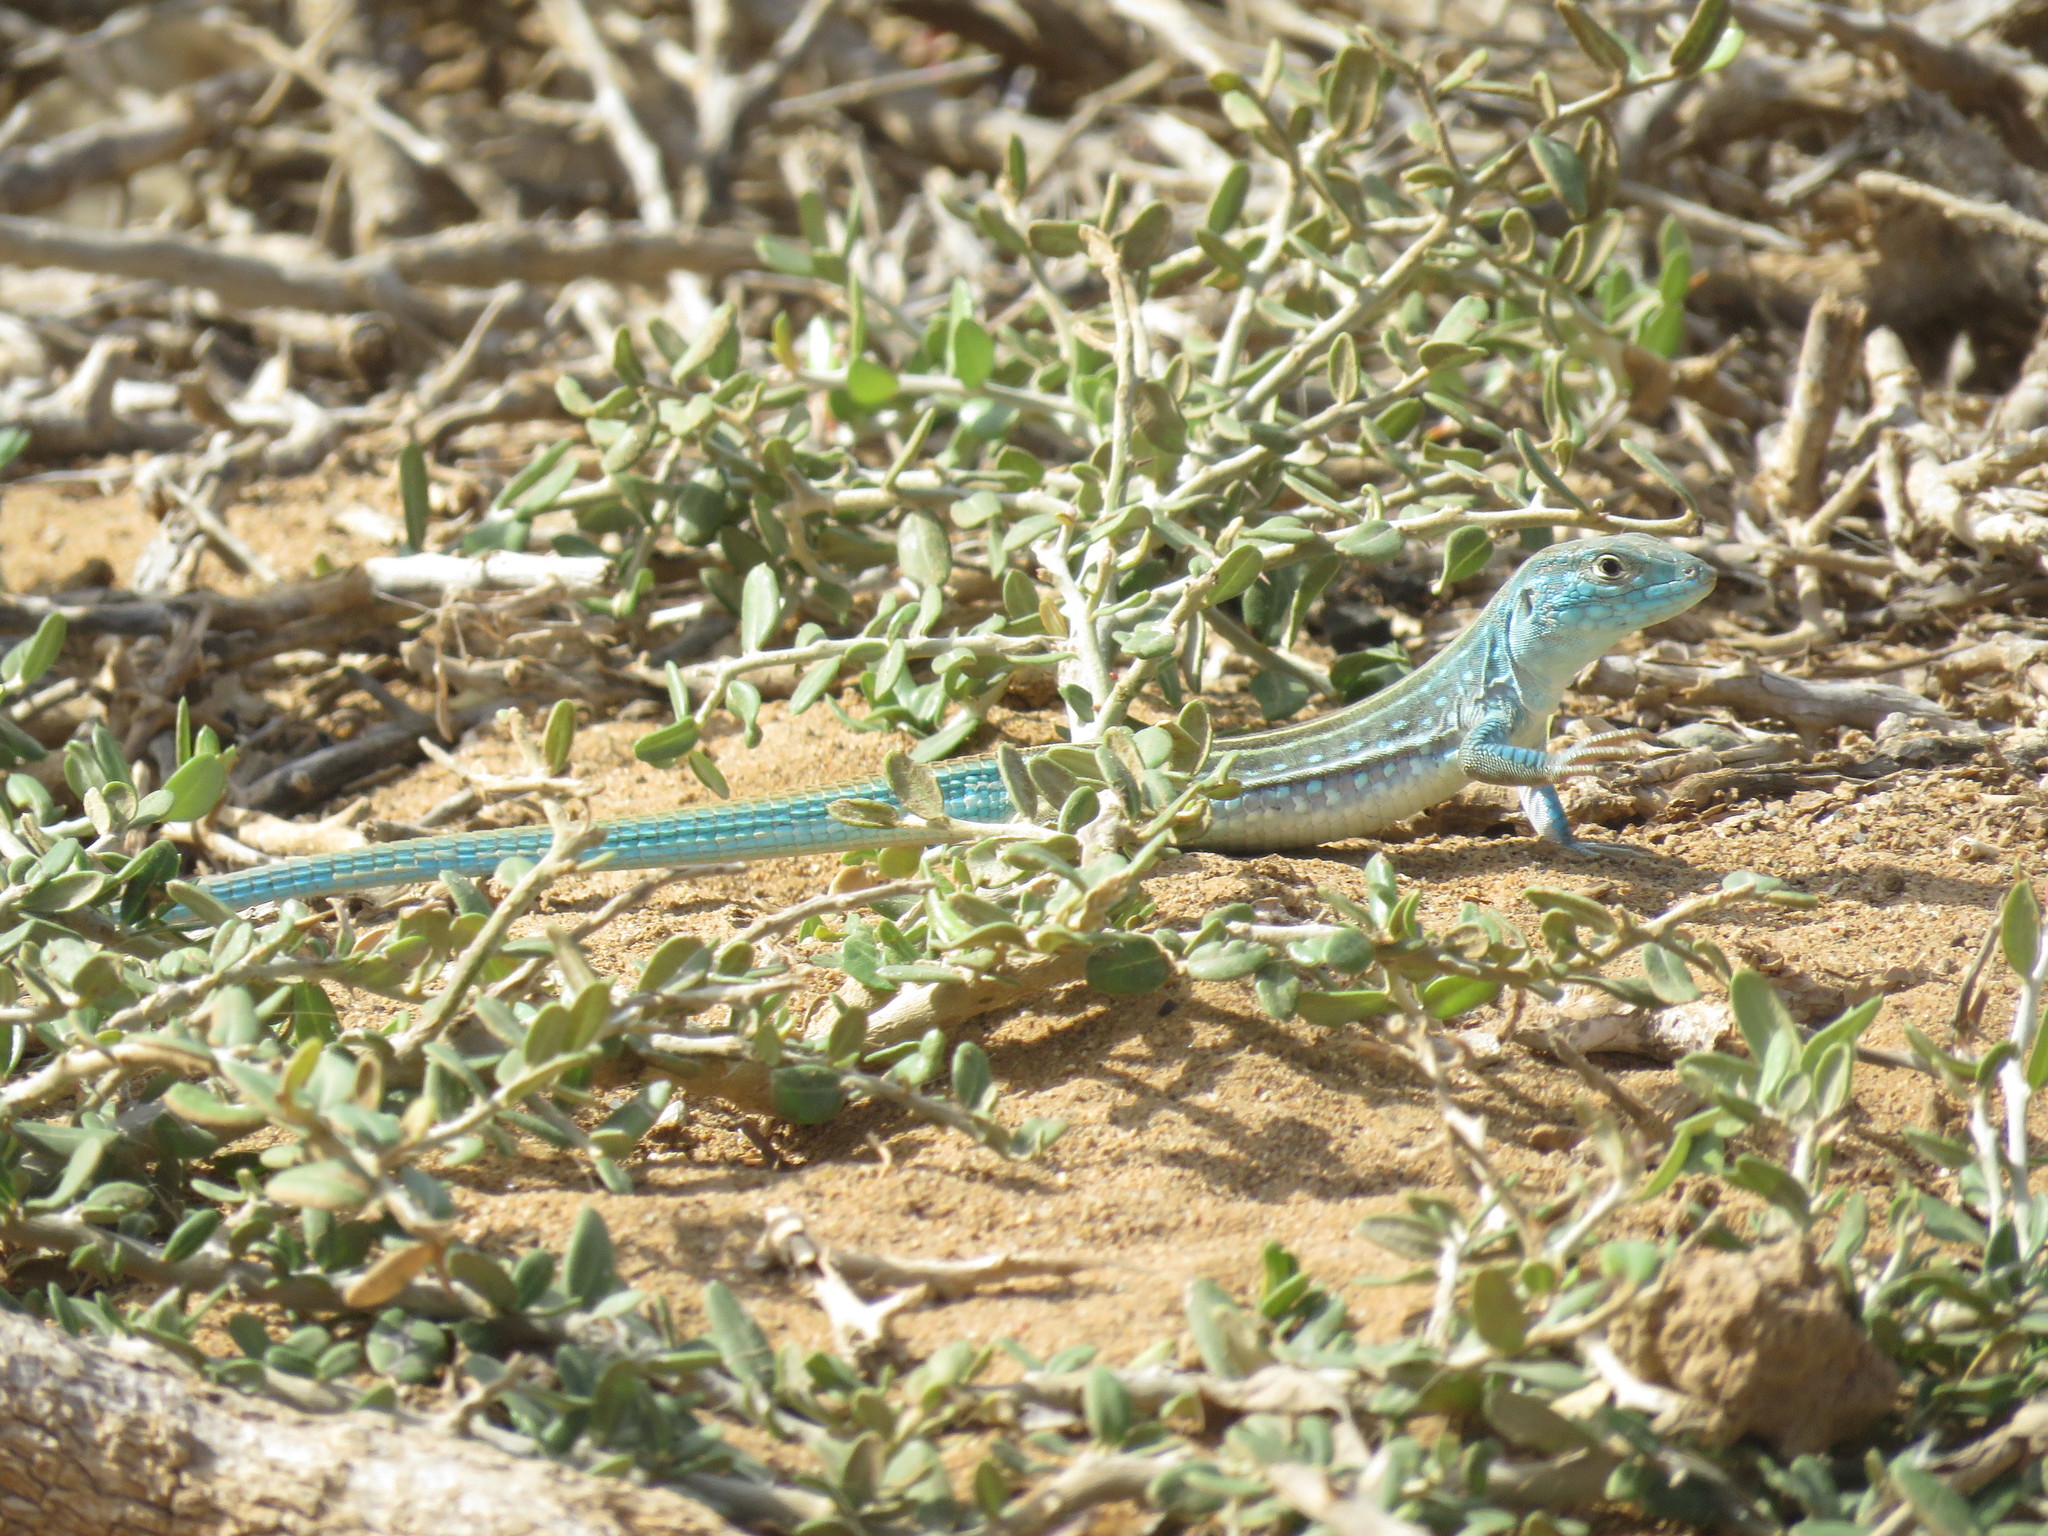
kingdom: Animalia
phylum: Chordata
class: Squamata
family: Teiidae
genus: Cnemidophorus
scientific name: Cnemidophorus splendidus
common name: Blue rainbow lizard
